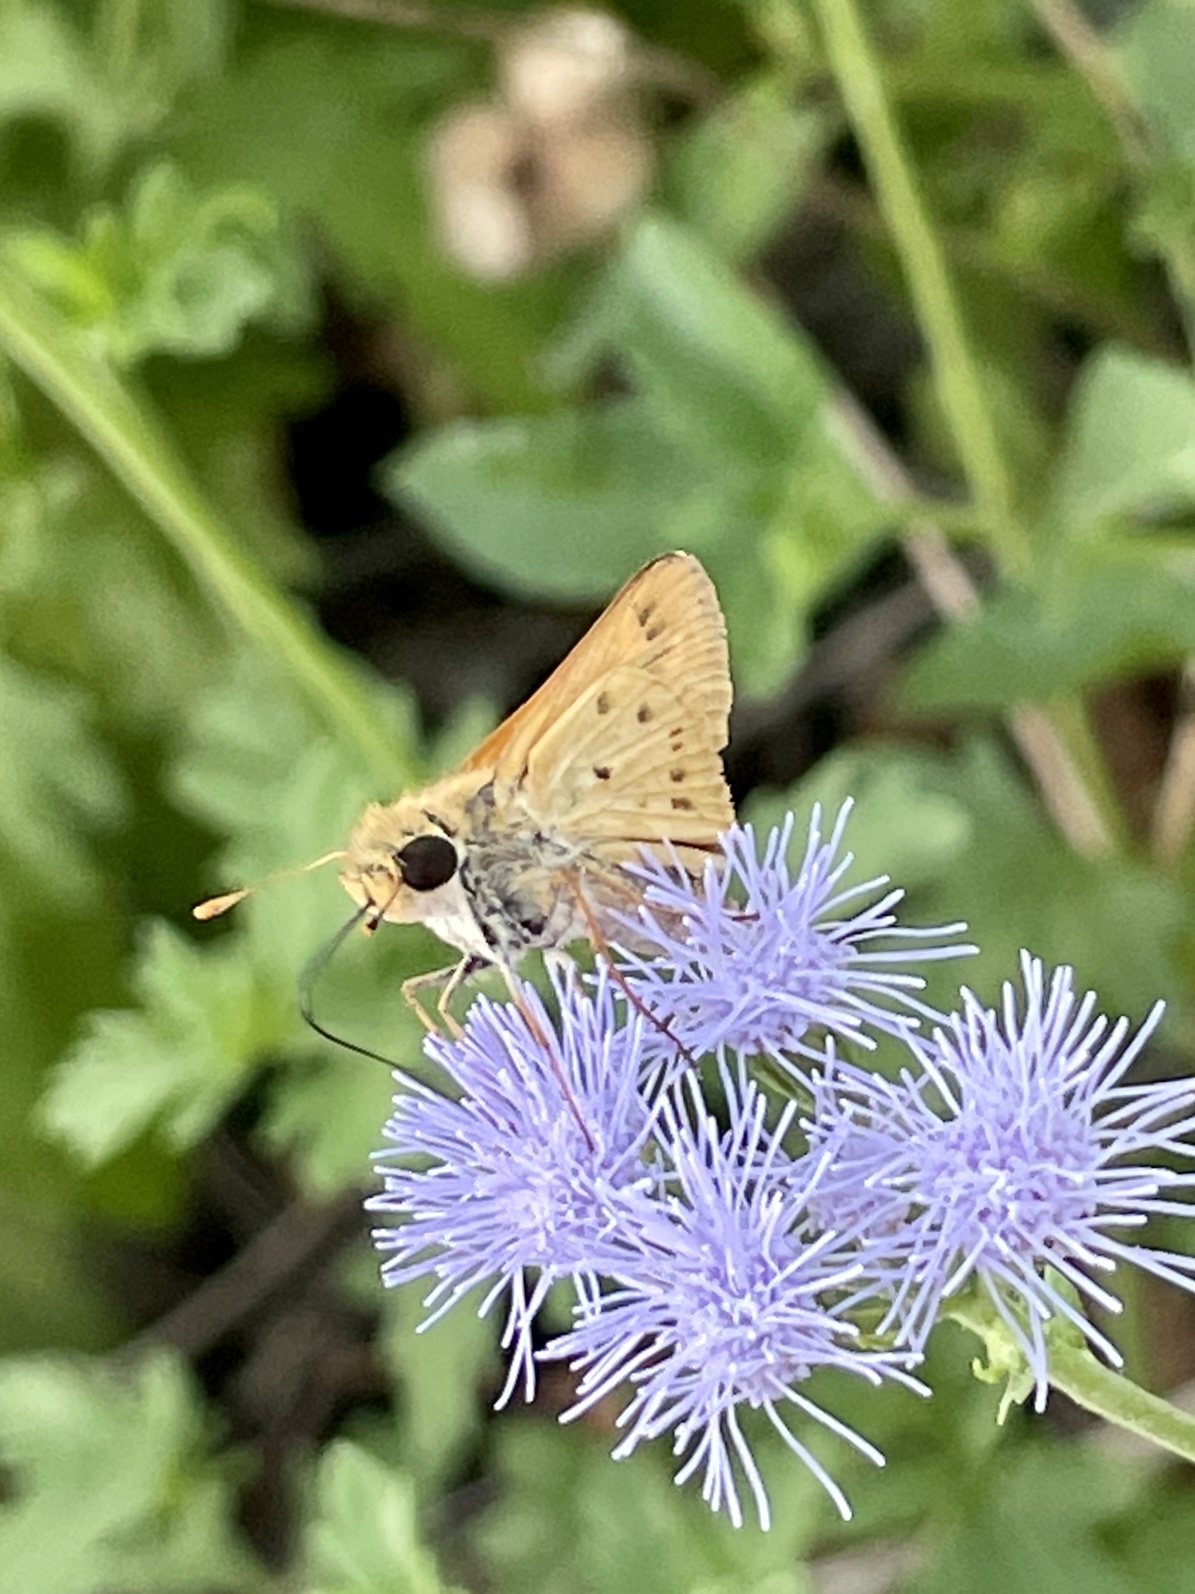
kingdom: Animalia
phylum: Arthropoda
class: Insecta
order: Lepidoptera
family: Hesperiidae
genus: Hylephila
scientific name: Hylephila phyleus
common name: Fiery skipper
